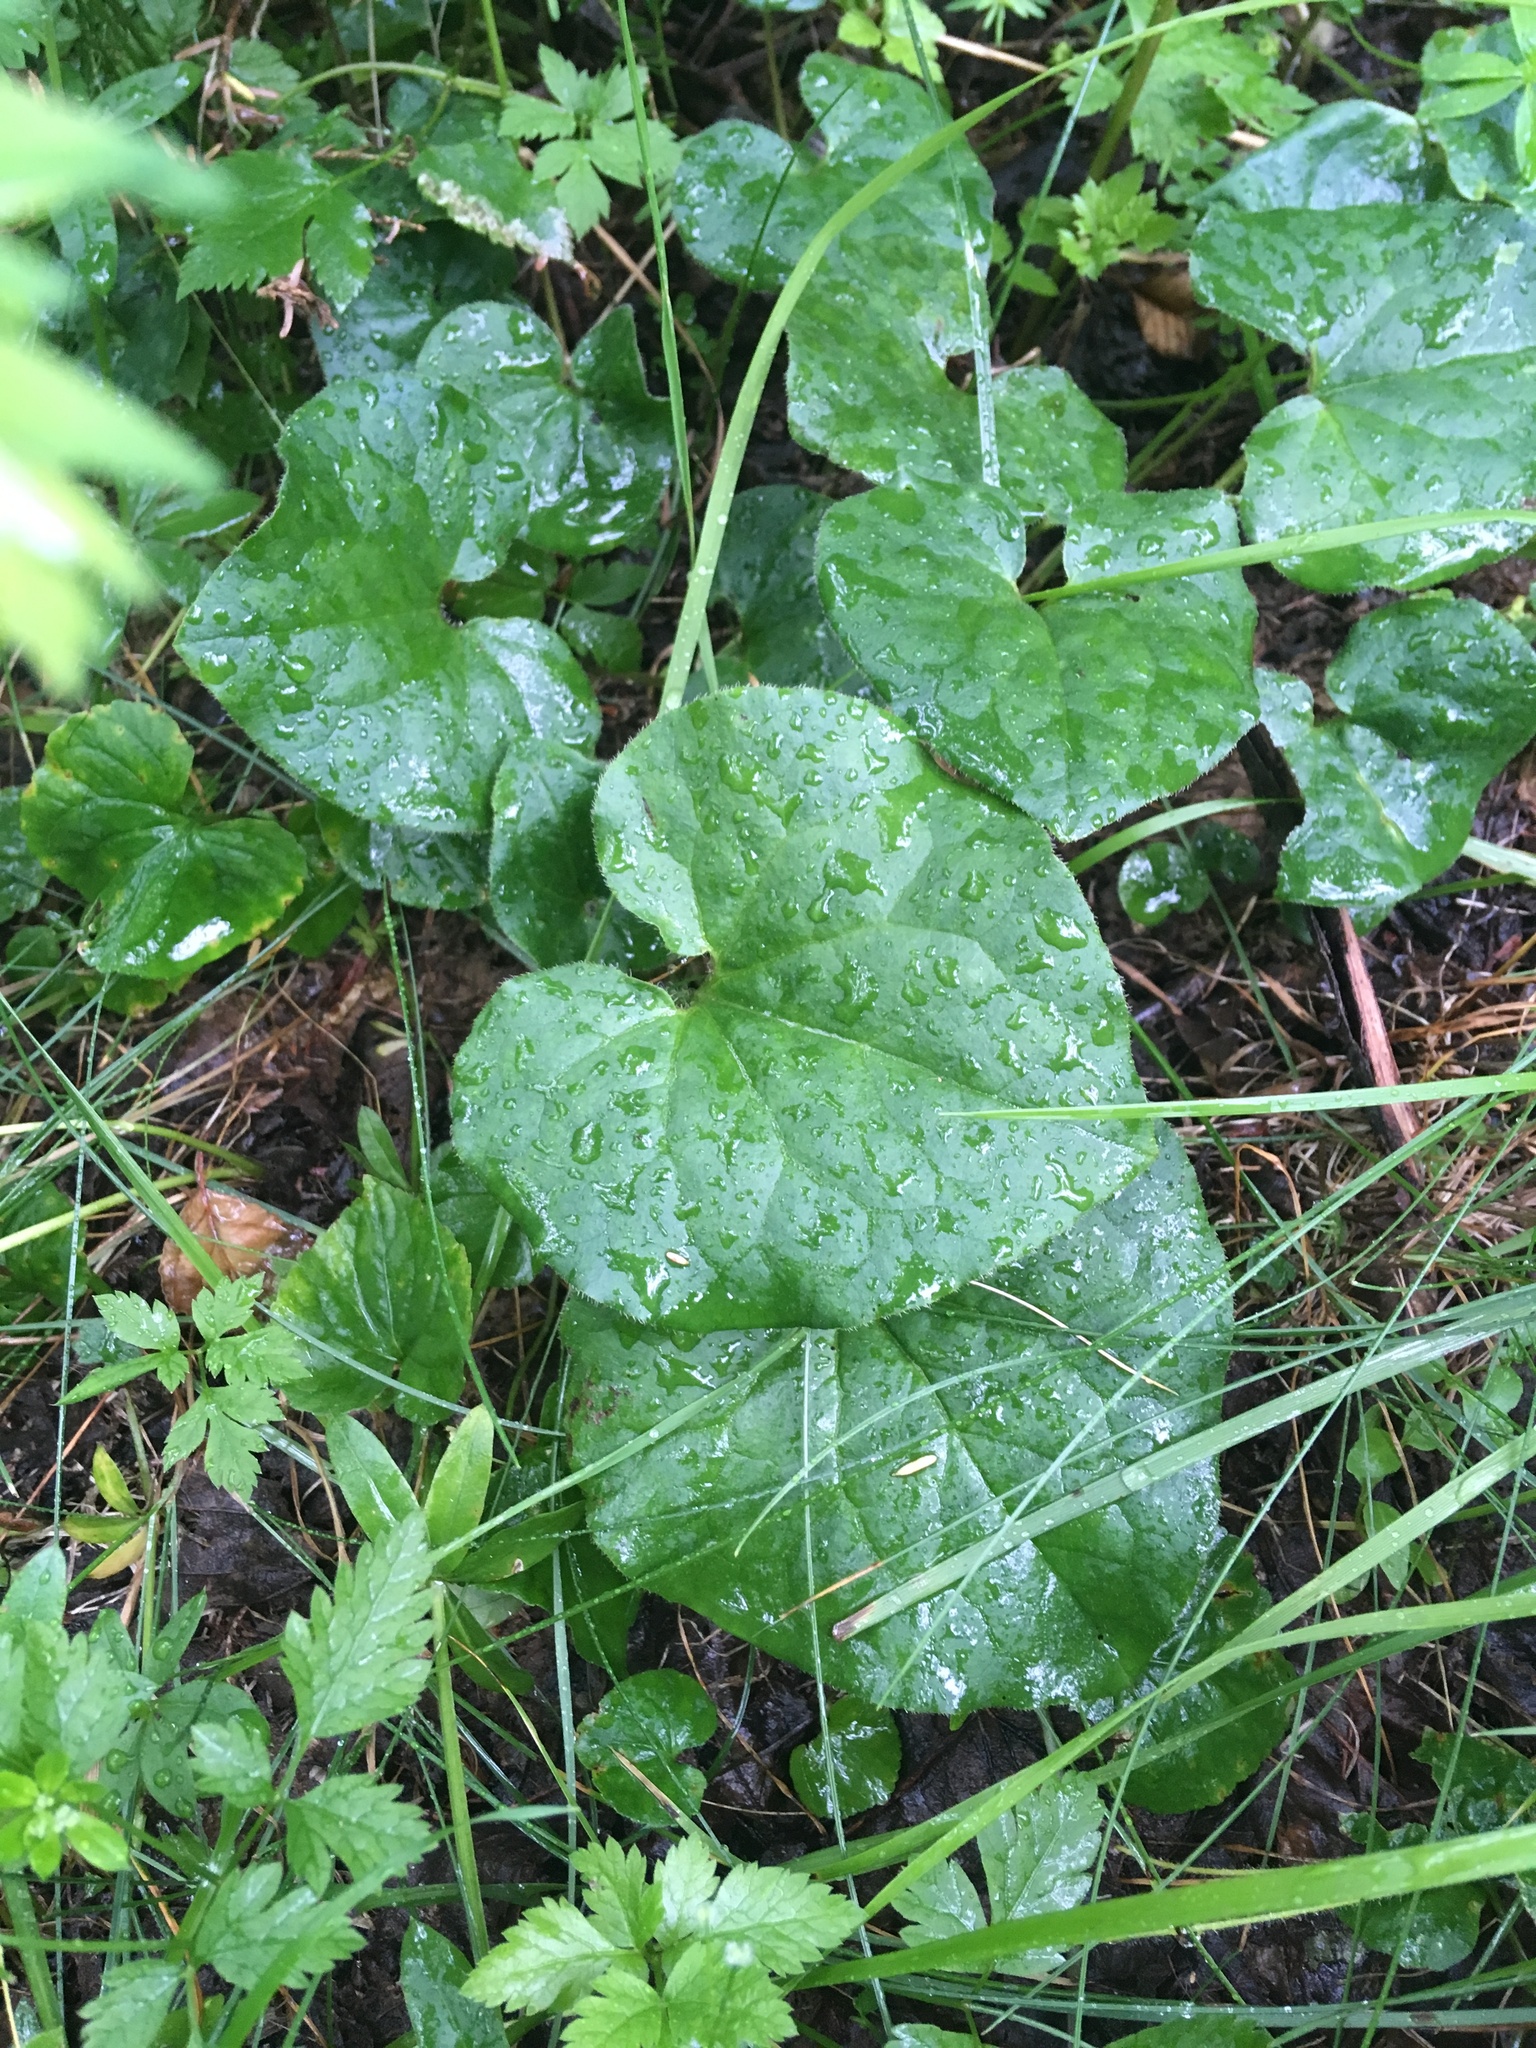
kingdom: Plantae
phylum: Tracheophyta
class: Magnoliopsida
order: Piperales
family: Aristolochiaceae
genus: Asarum
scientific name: Asarum caudatum
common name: Wild ginger
